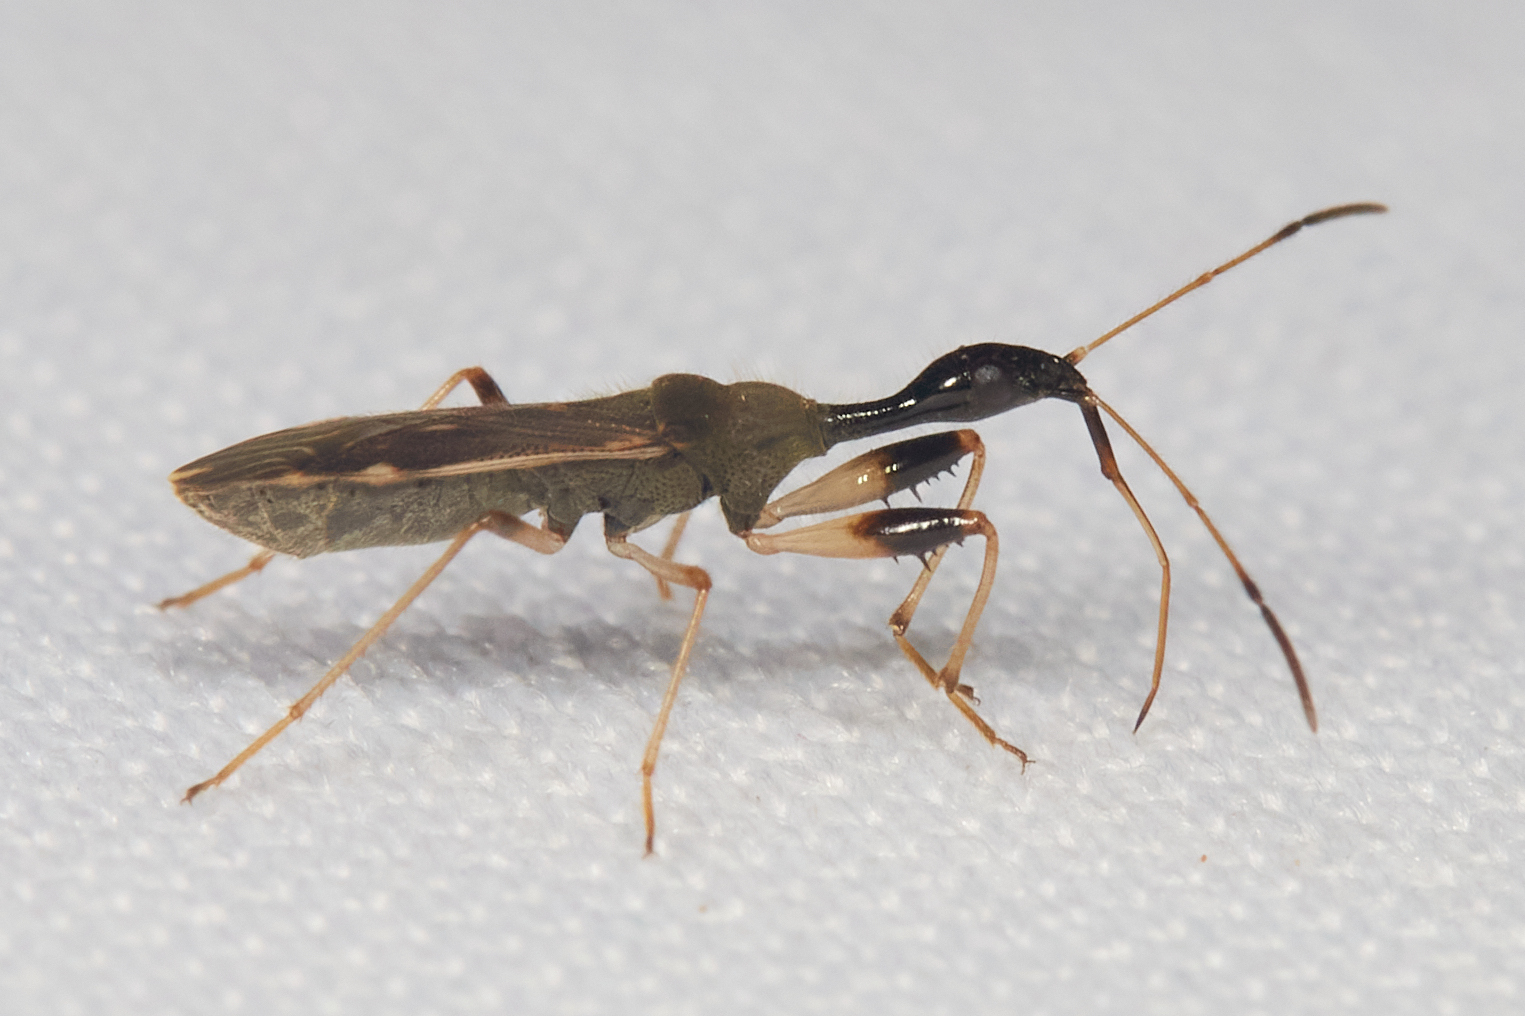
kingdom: Animalia
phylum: Arthropoda
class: Insecta
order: Hemiptera
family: Rhyparochromidae
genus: Myodocha
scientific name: Myodocha serripes
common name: Long-necked seed bug
